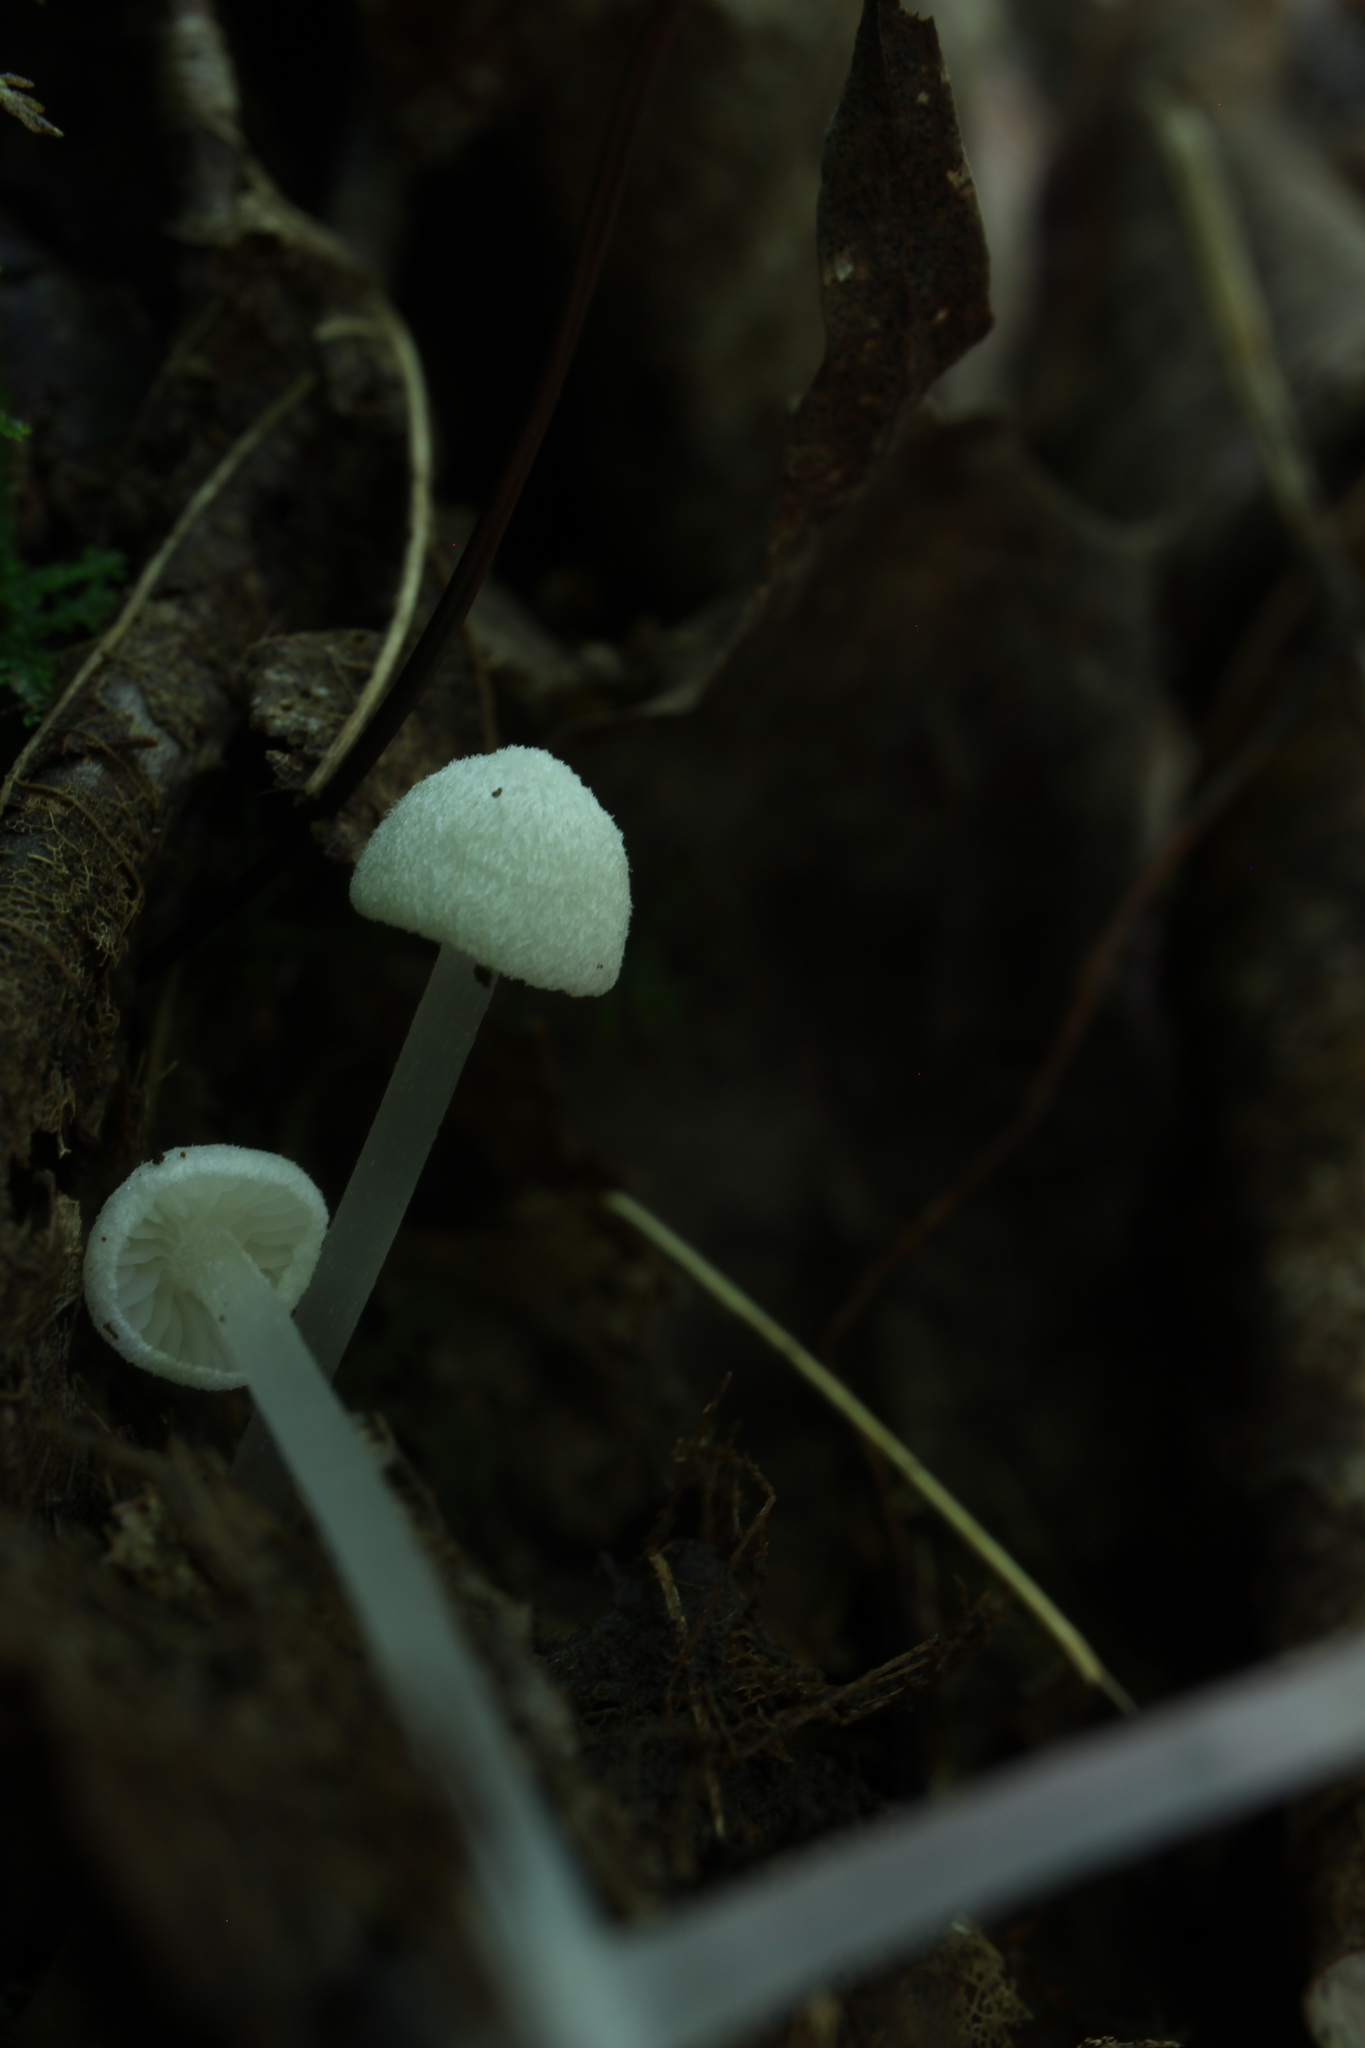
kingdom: Fungi
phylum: Basidiomycota
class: Agaricomycetes
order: Agaricales
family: Entolomataceae
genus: Entoloma
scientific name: Entoloma sericellum
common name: Cream pinkgill
